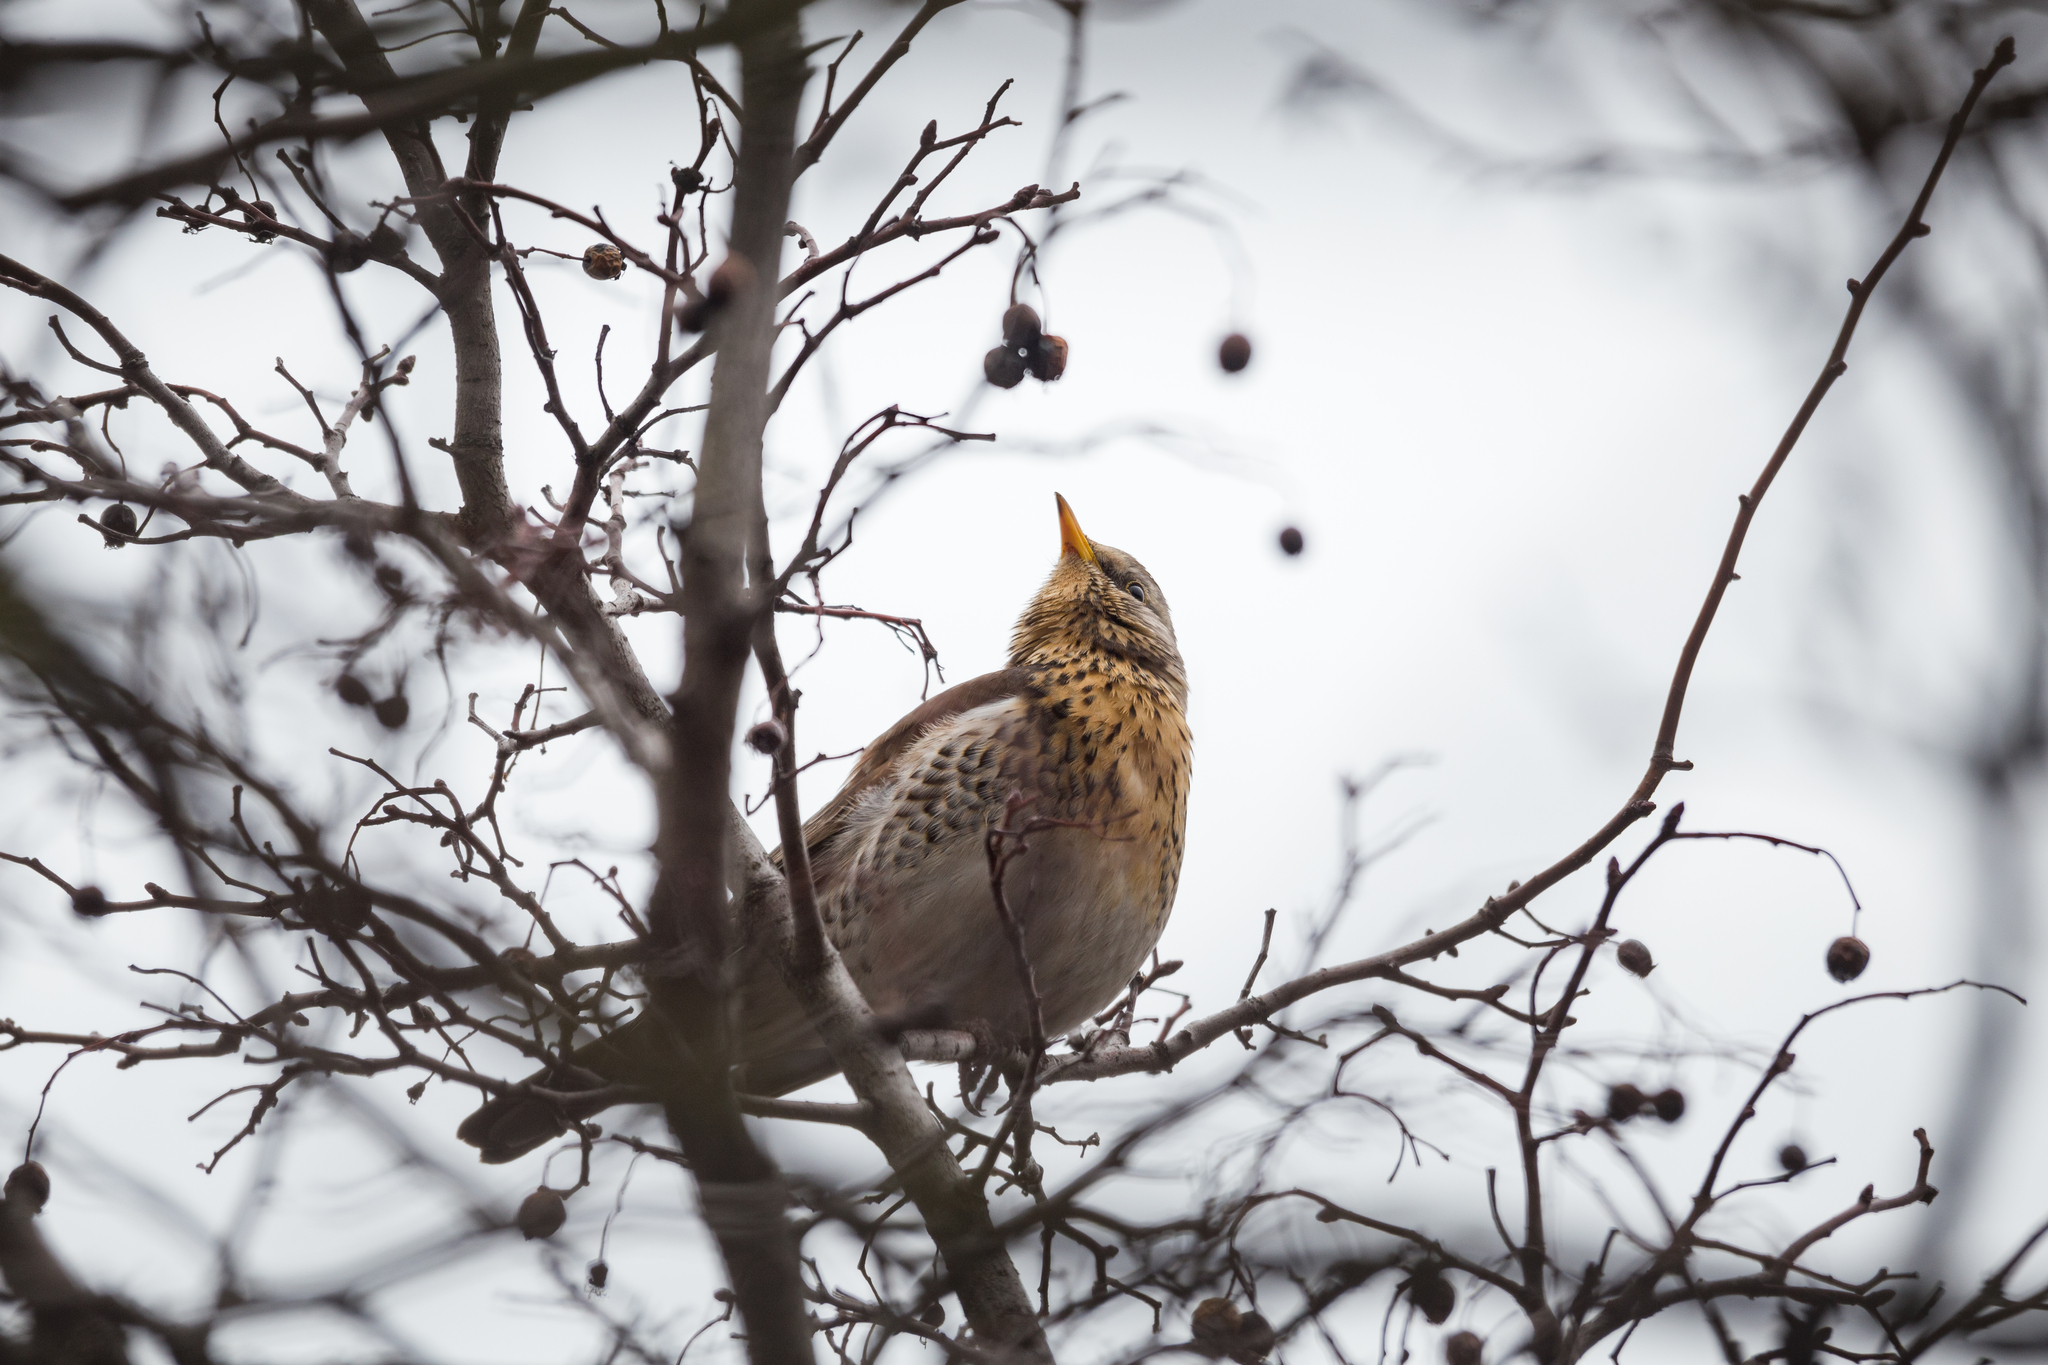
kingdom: Animalia
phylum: Chordata
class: Aves
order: Passeriformes
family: Turdidae
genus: Turdus
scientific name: Turdus pilaris
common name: Fieldfare
